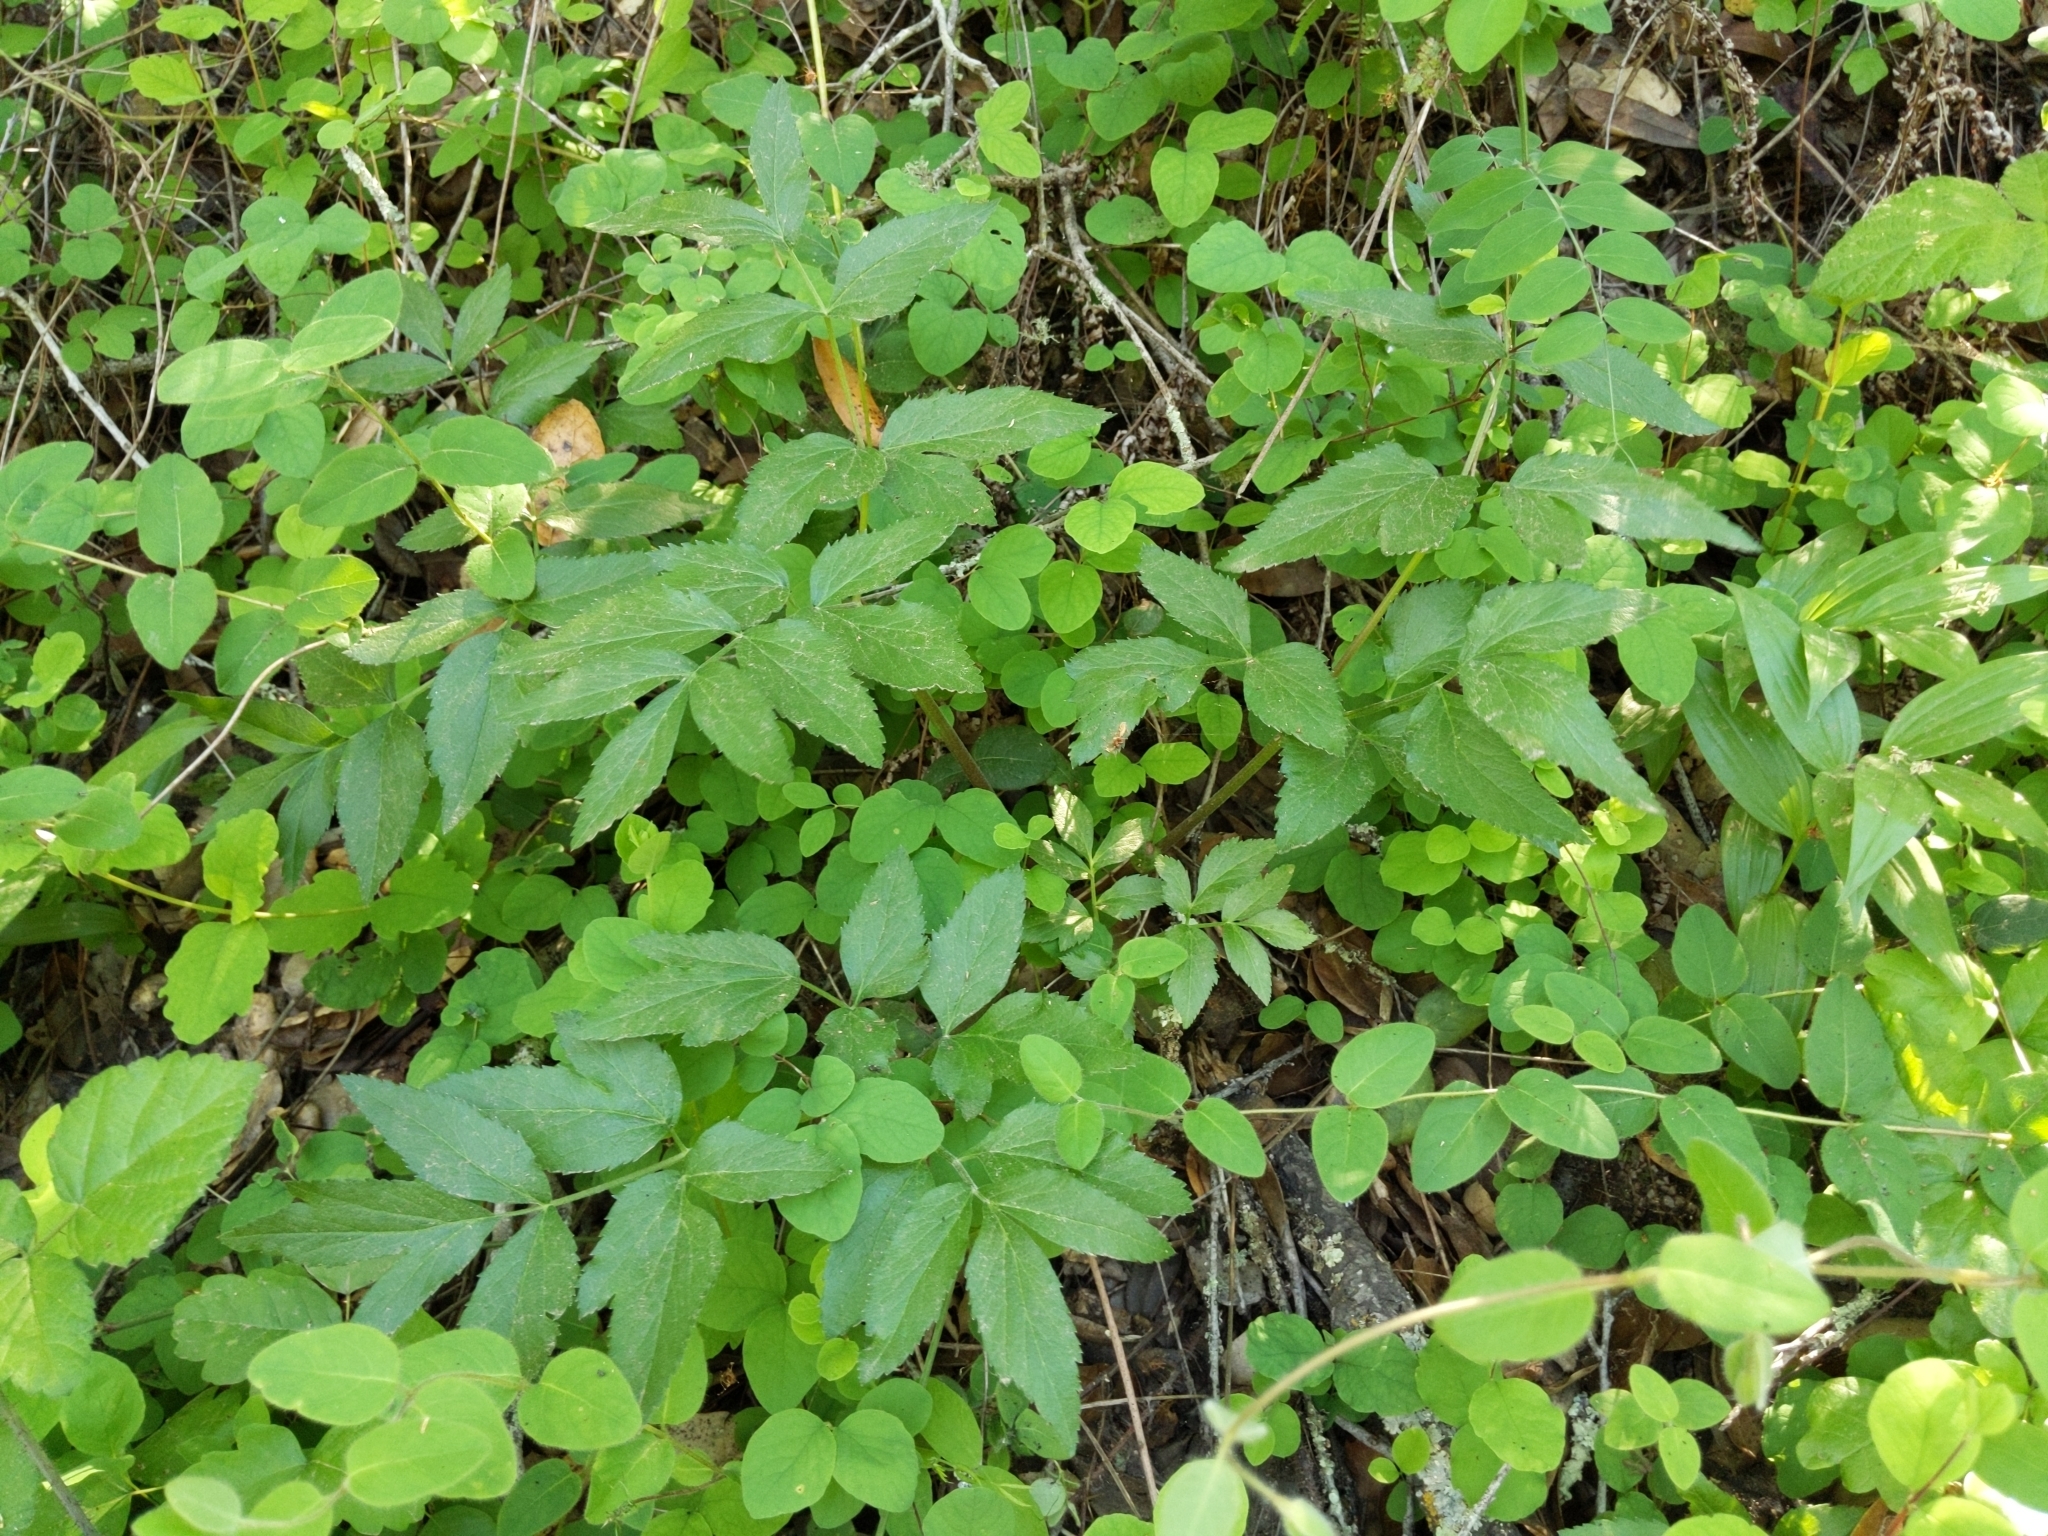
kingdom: Plantae
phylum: Tracheophyta
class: Magnoliopsida
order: Apiales
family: Apiaceae
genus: Angelica
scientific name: Angelica californica
